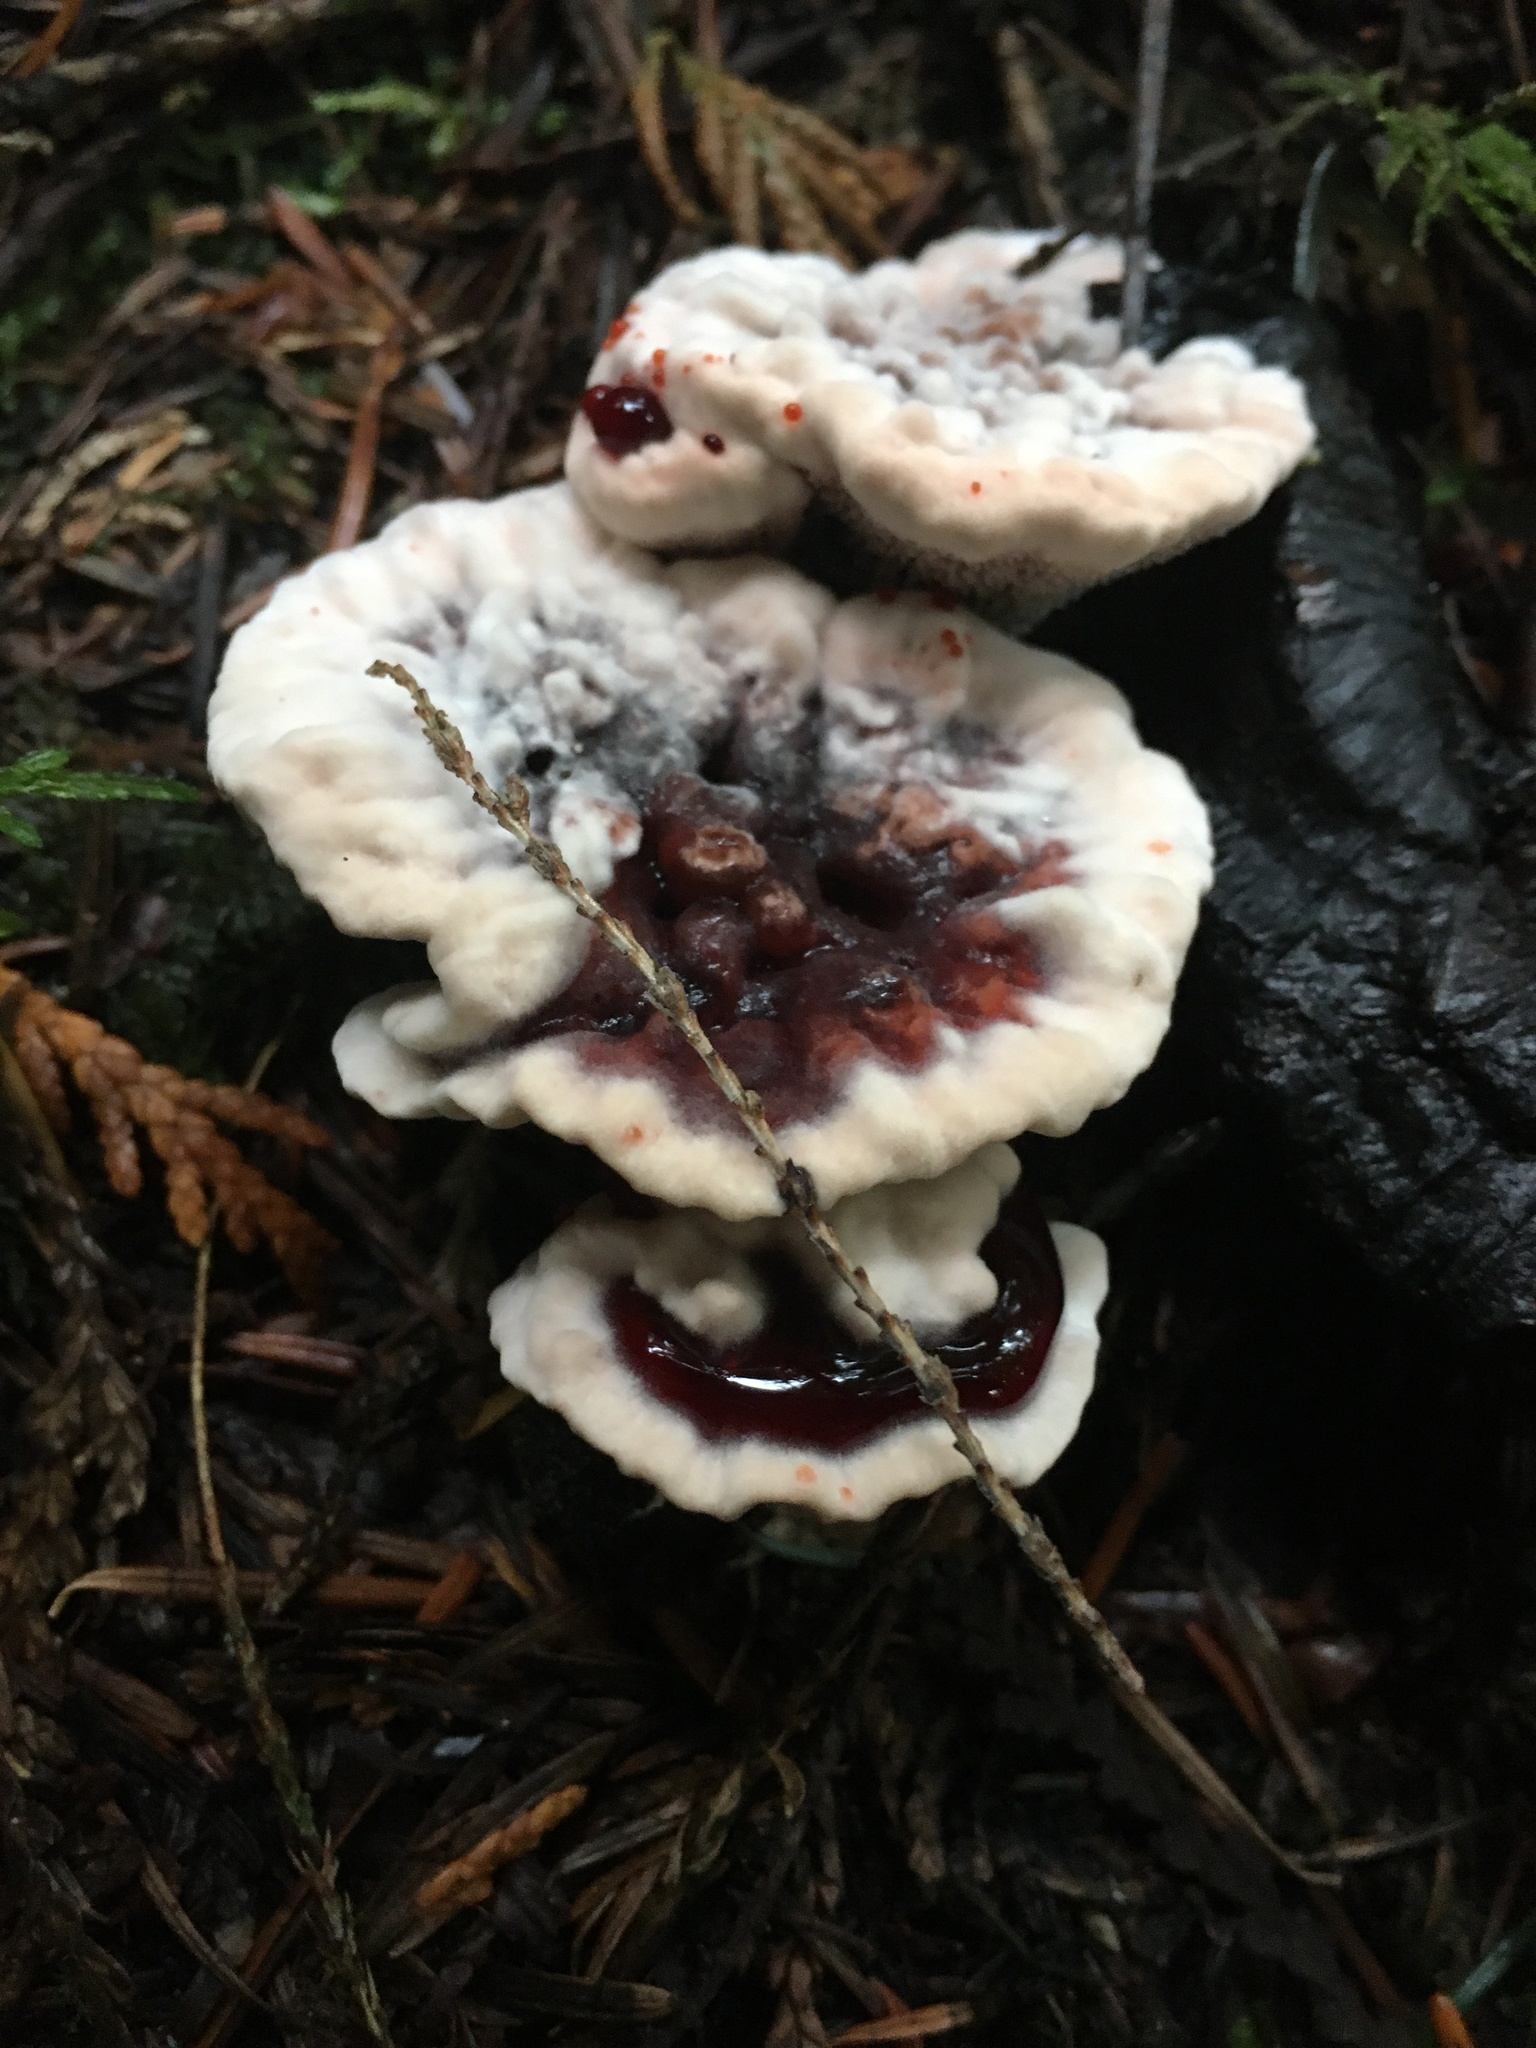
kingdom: Fungi
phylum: Basidiomycota
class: Agaricomycetes
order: Thelephorales
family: Bankeraceae
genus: Hydnellum
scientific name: Hydnellum peckii
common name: Devil's tooth
